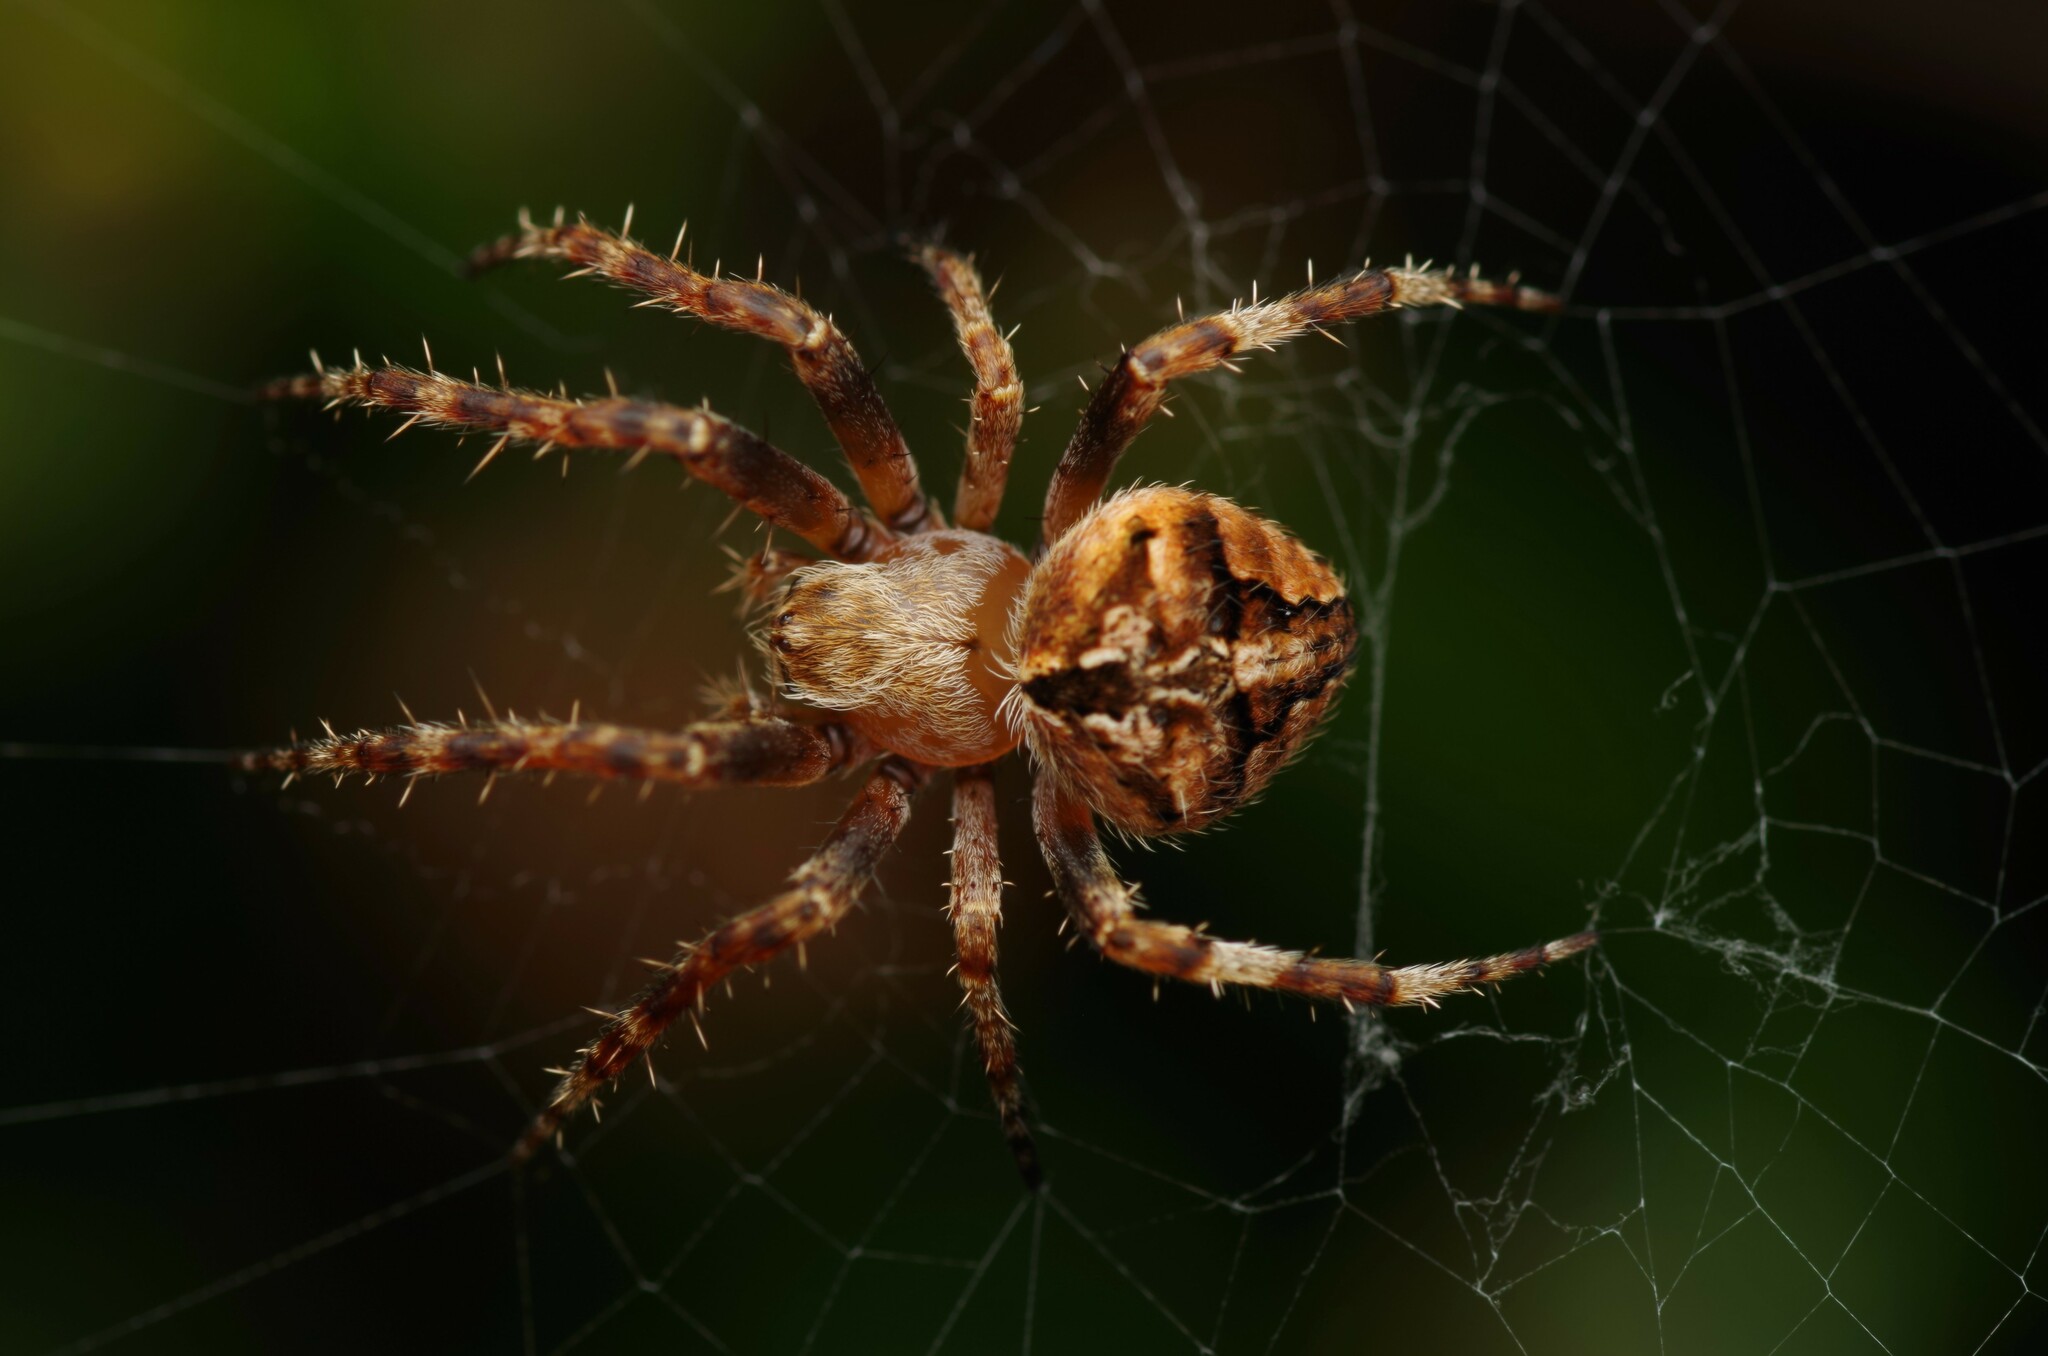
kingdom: Animalia
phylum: Arthropoda
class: Arachnida
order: Araneae
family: Araneidae
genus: Neoscona
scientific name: Neoscona subfusca
